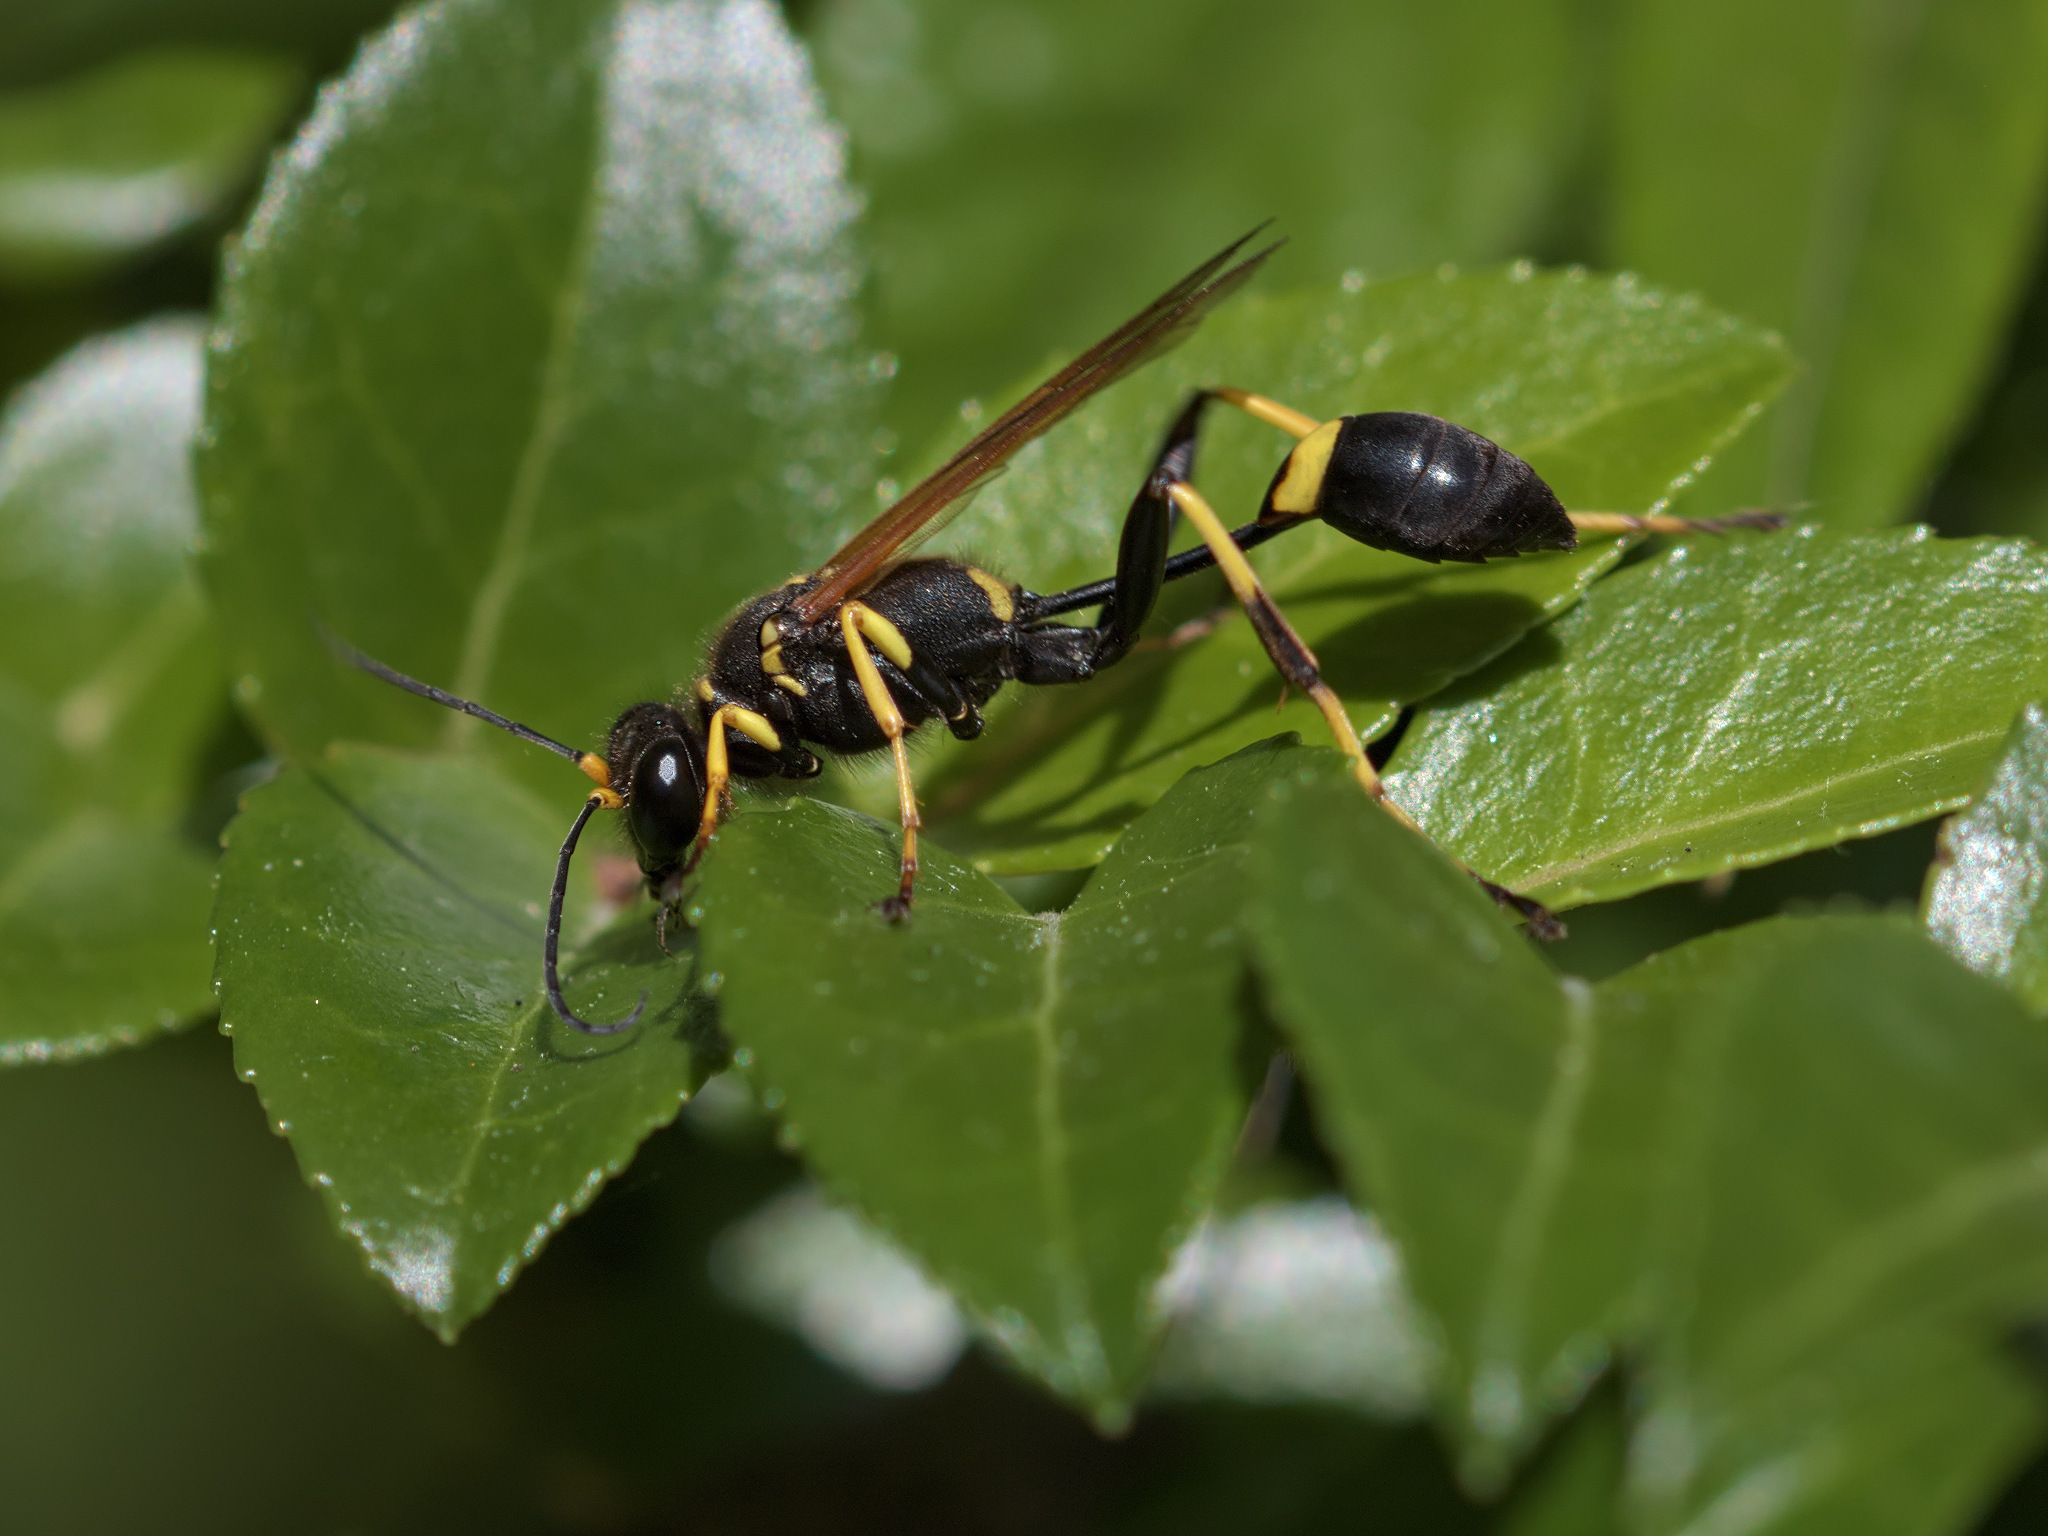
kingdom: Animalia
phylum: Arthropoda
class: Insecta
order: Hymenoptera
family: Sphecidae
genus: Sceliphron
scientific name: Sceliphron caementarium
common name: Mud dauber
